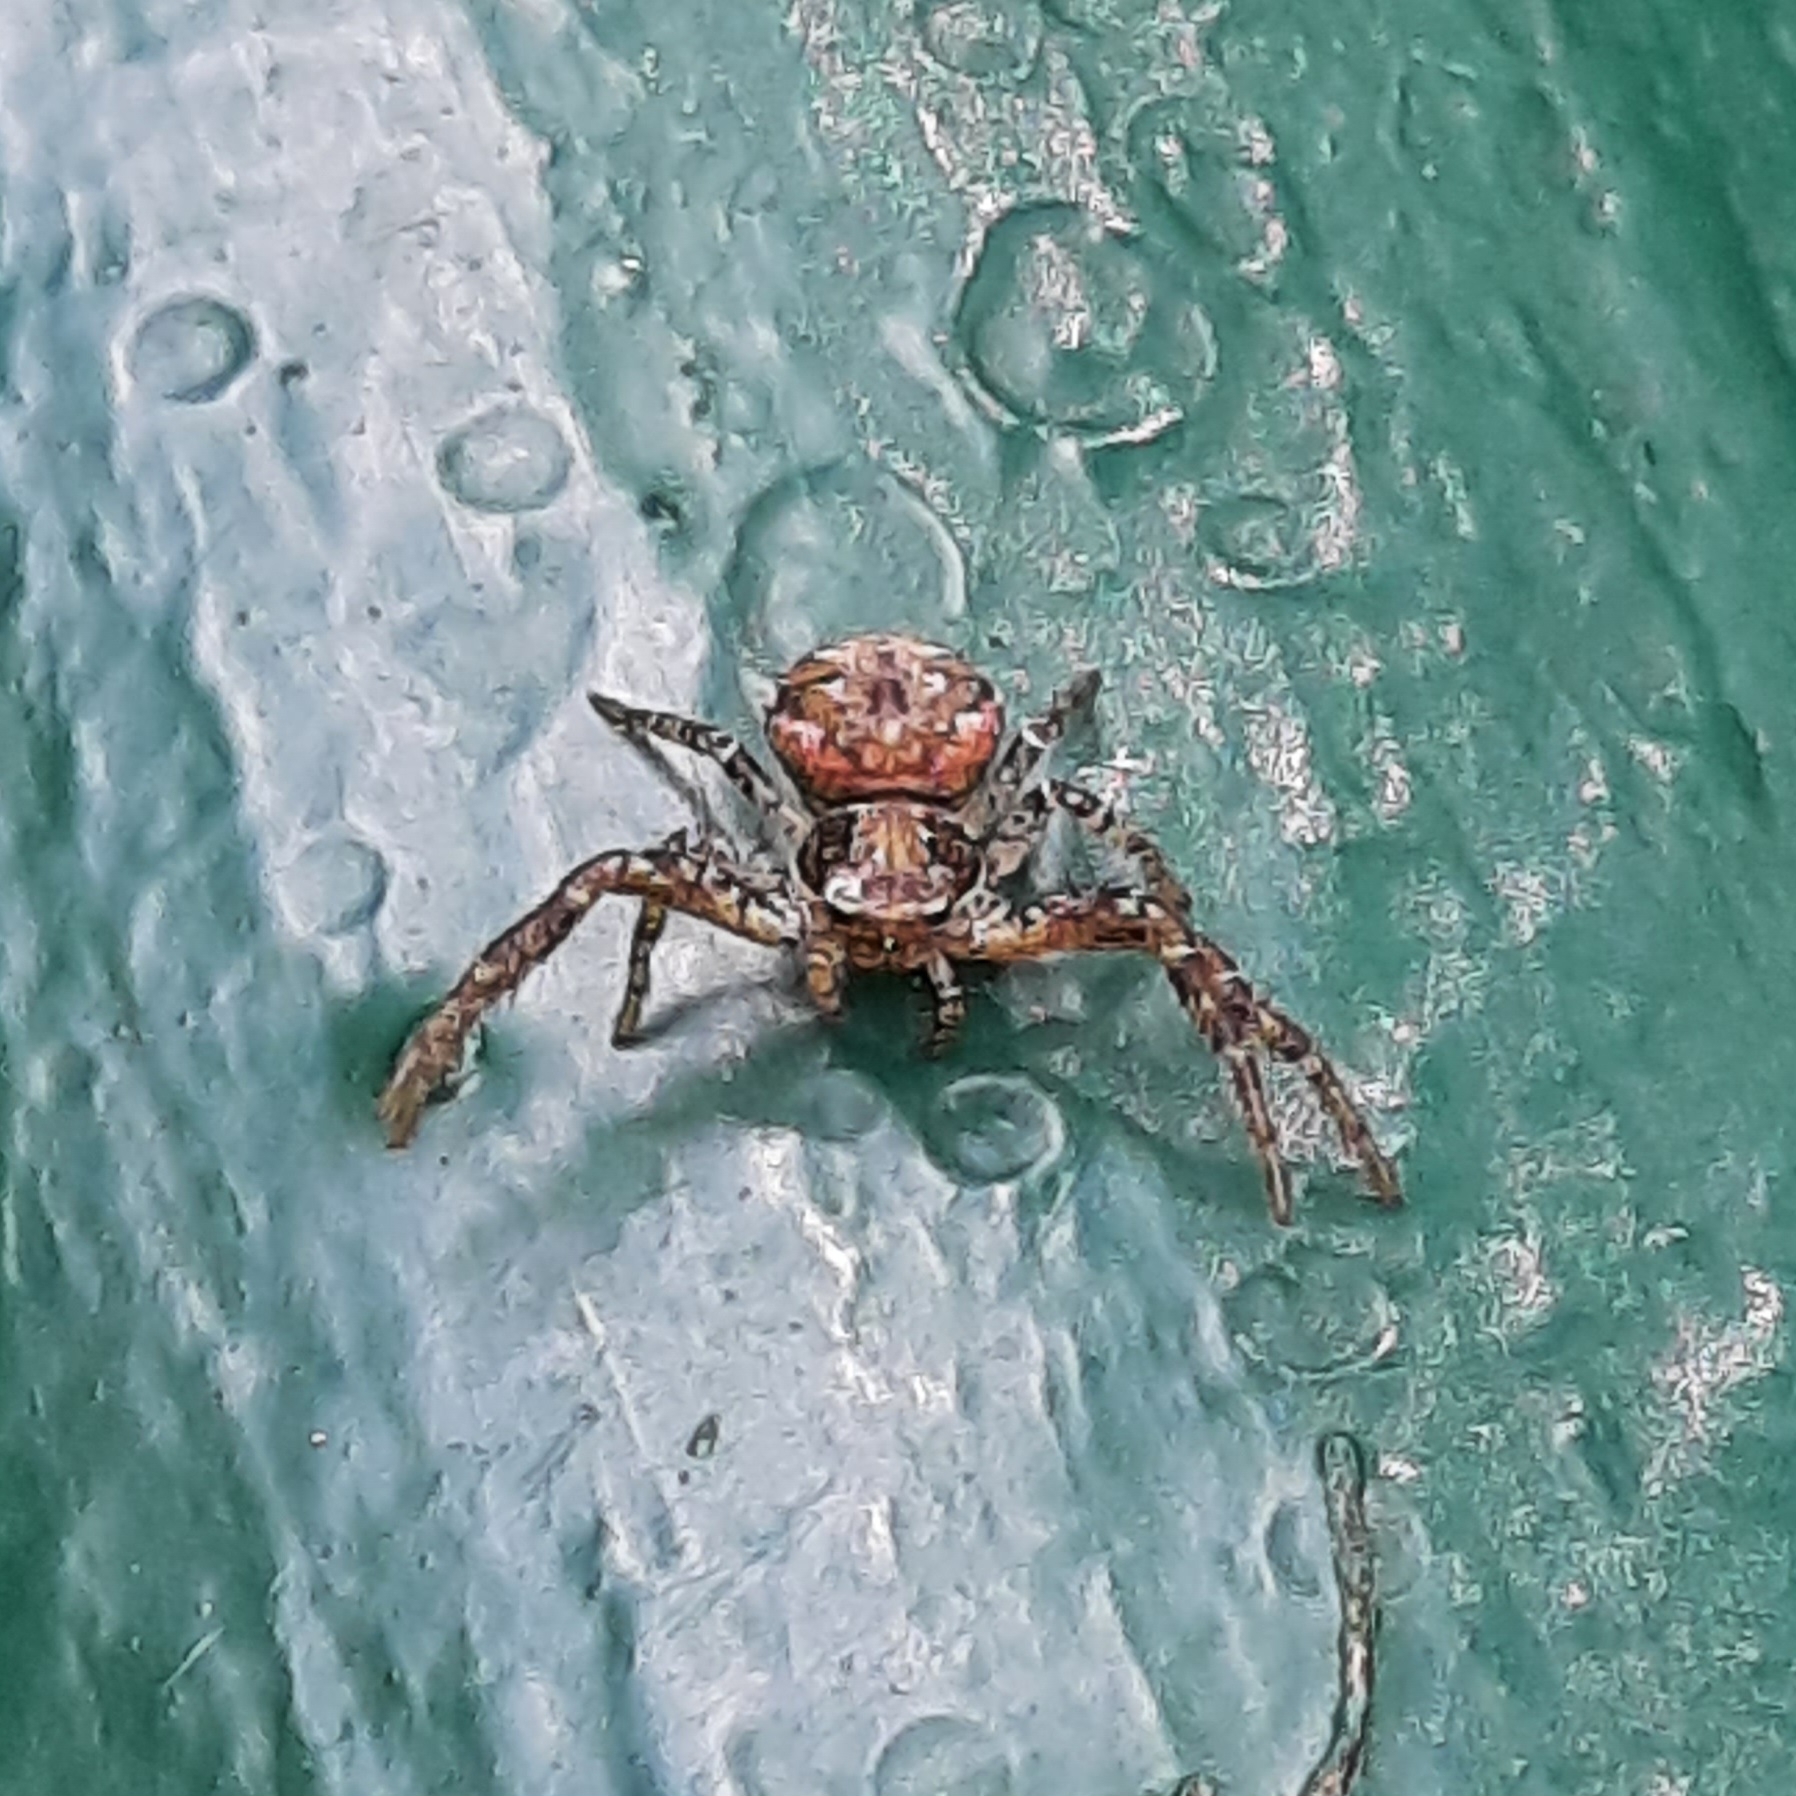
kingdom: Animalia
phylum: Arthropoda
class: Arachnida
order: Araneae
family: Thomisidae
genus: Xysticus
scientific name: Xysticus
